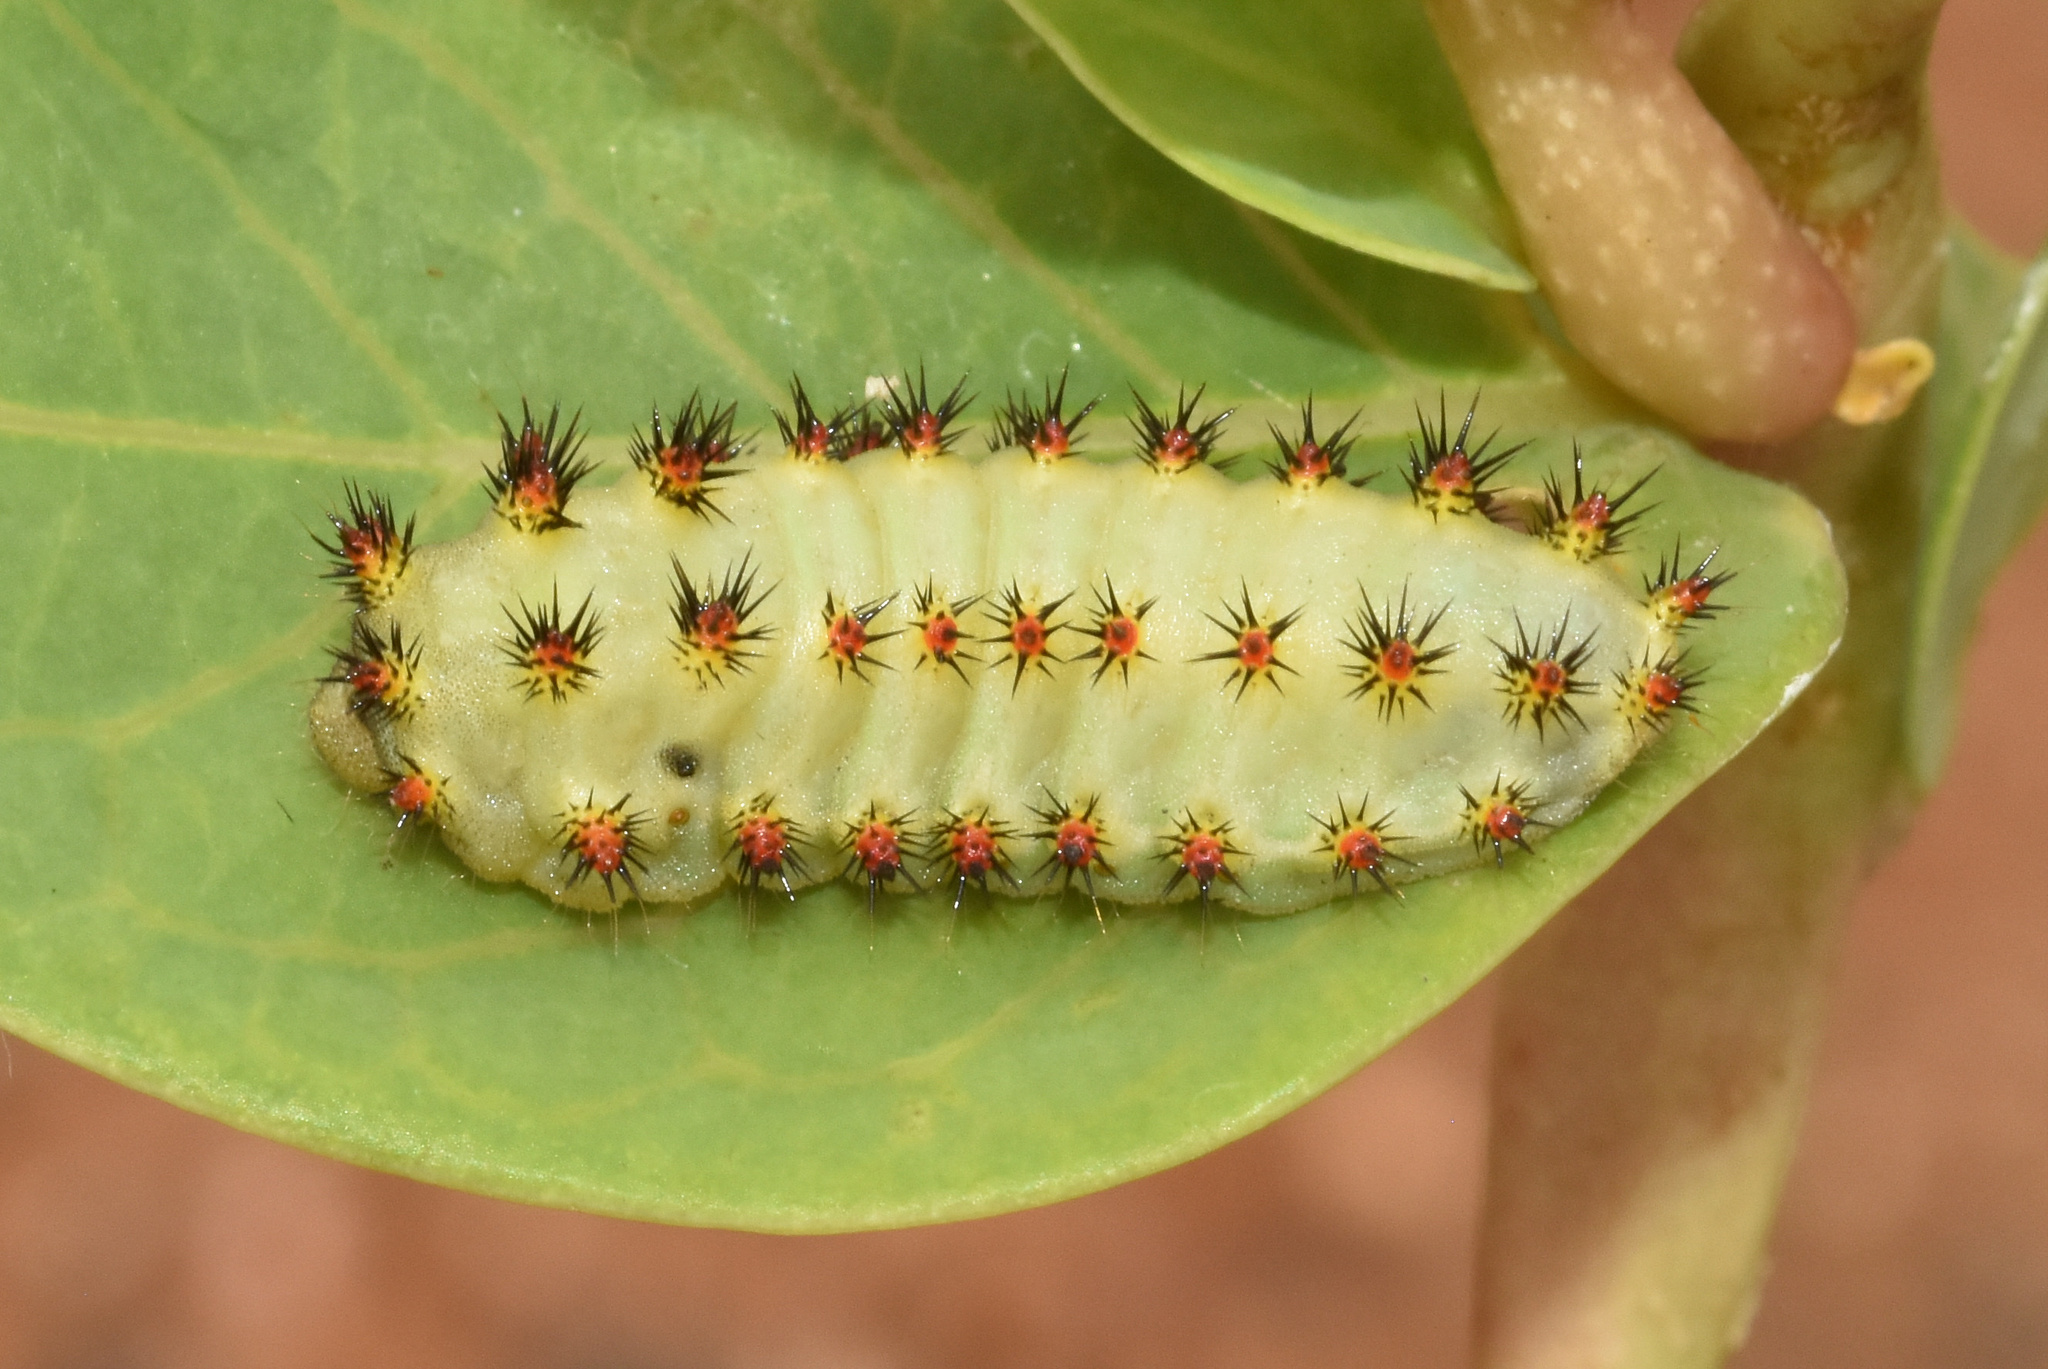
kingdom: Animalia
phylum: Arthropoda
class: Insecta
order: Lepidoptera
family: Limacodidae
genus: Sporetolepis
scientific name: Sporetolepis platti
